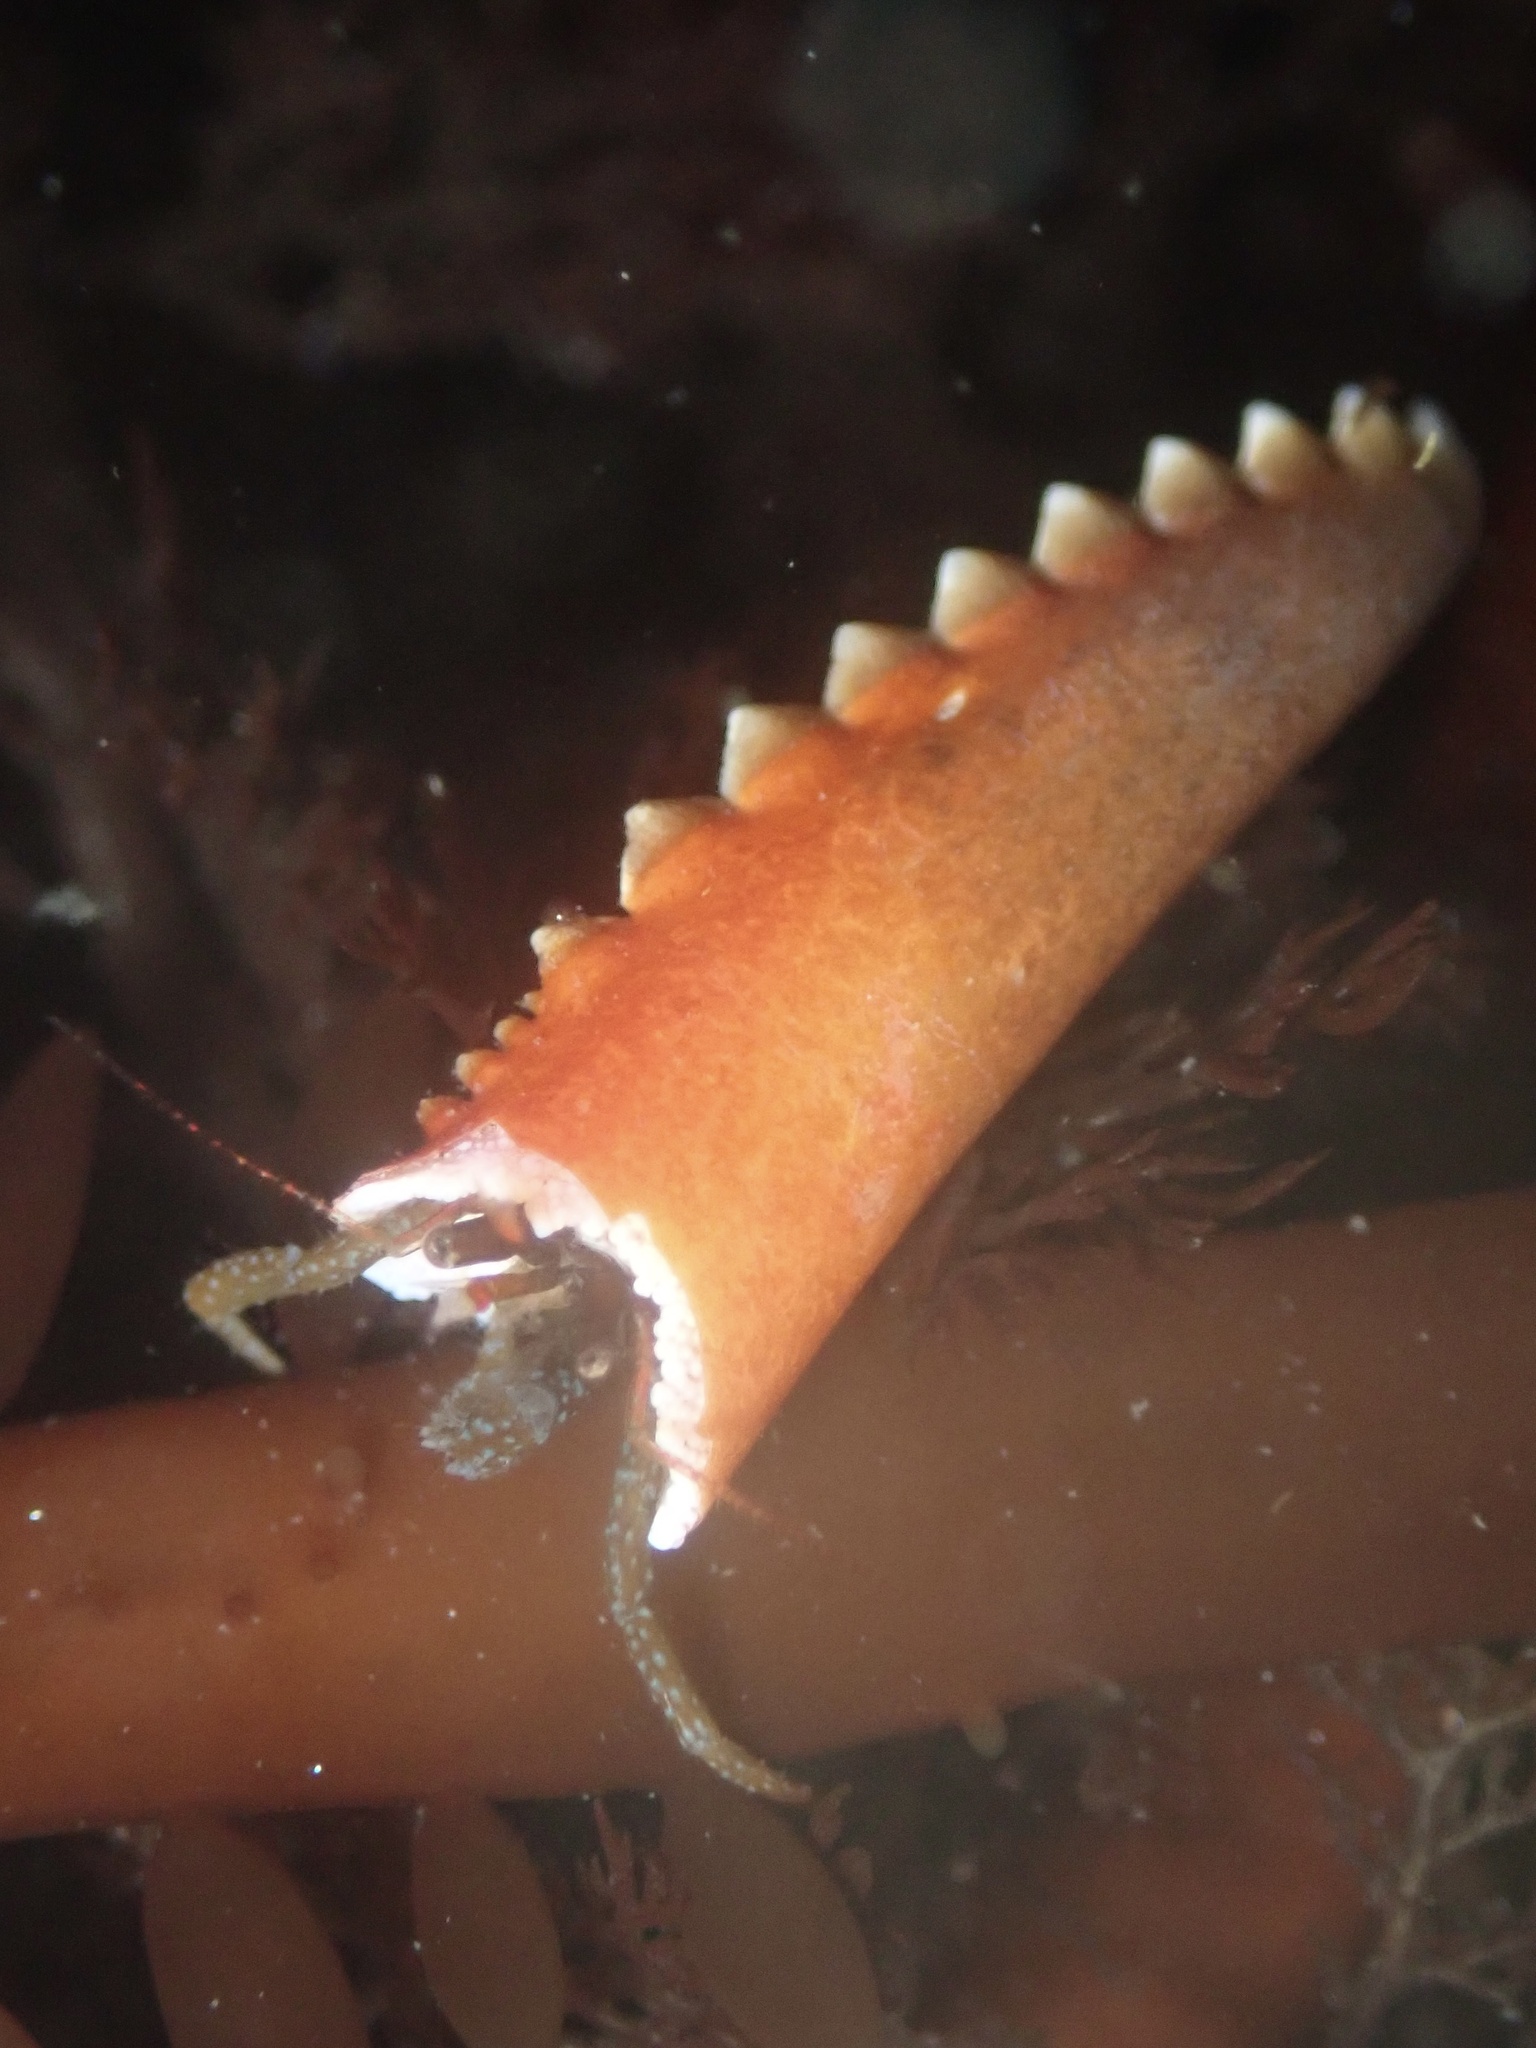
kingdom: Animalia
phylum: Arthropoda
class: Malacostraca
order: Decapoda
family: Paguridae
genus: Pagurus
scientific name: Pagurus granosimanus
